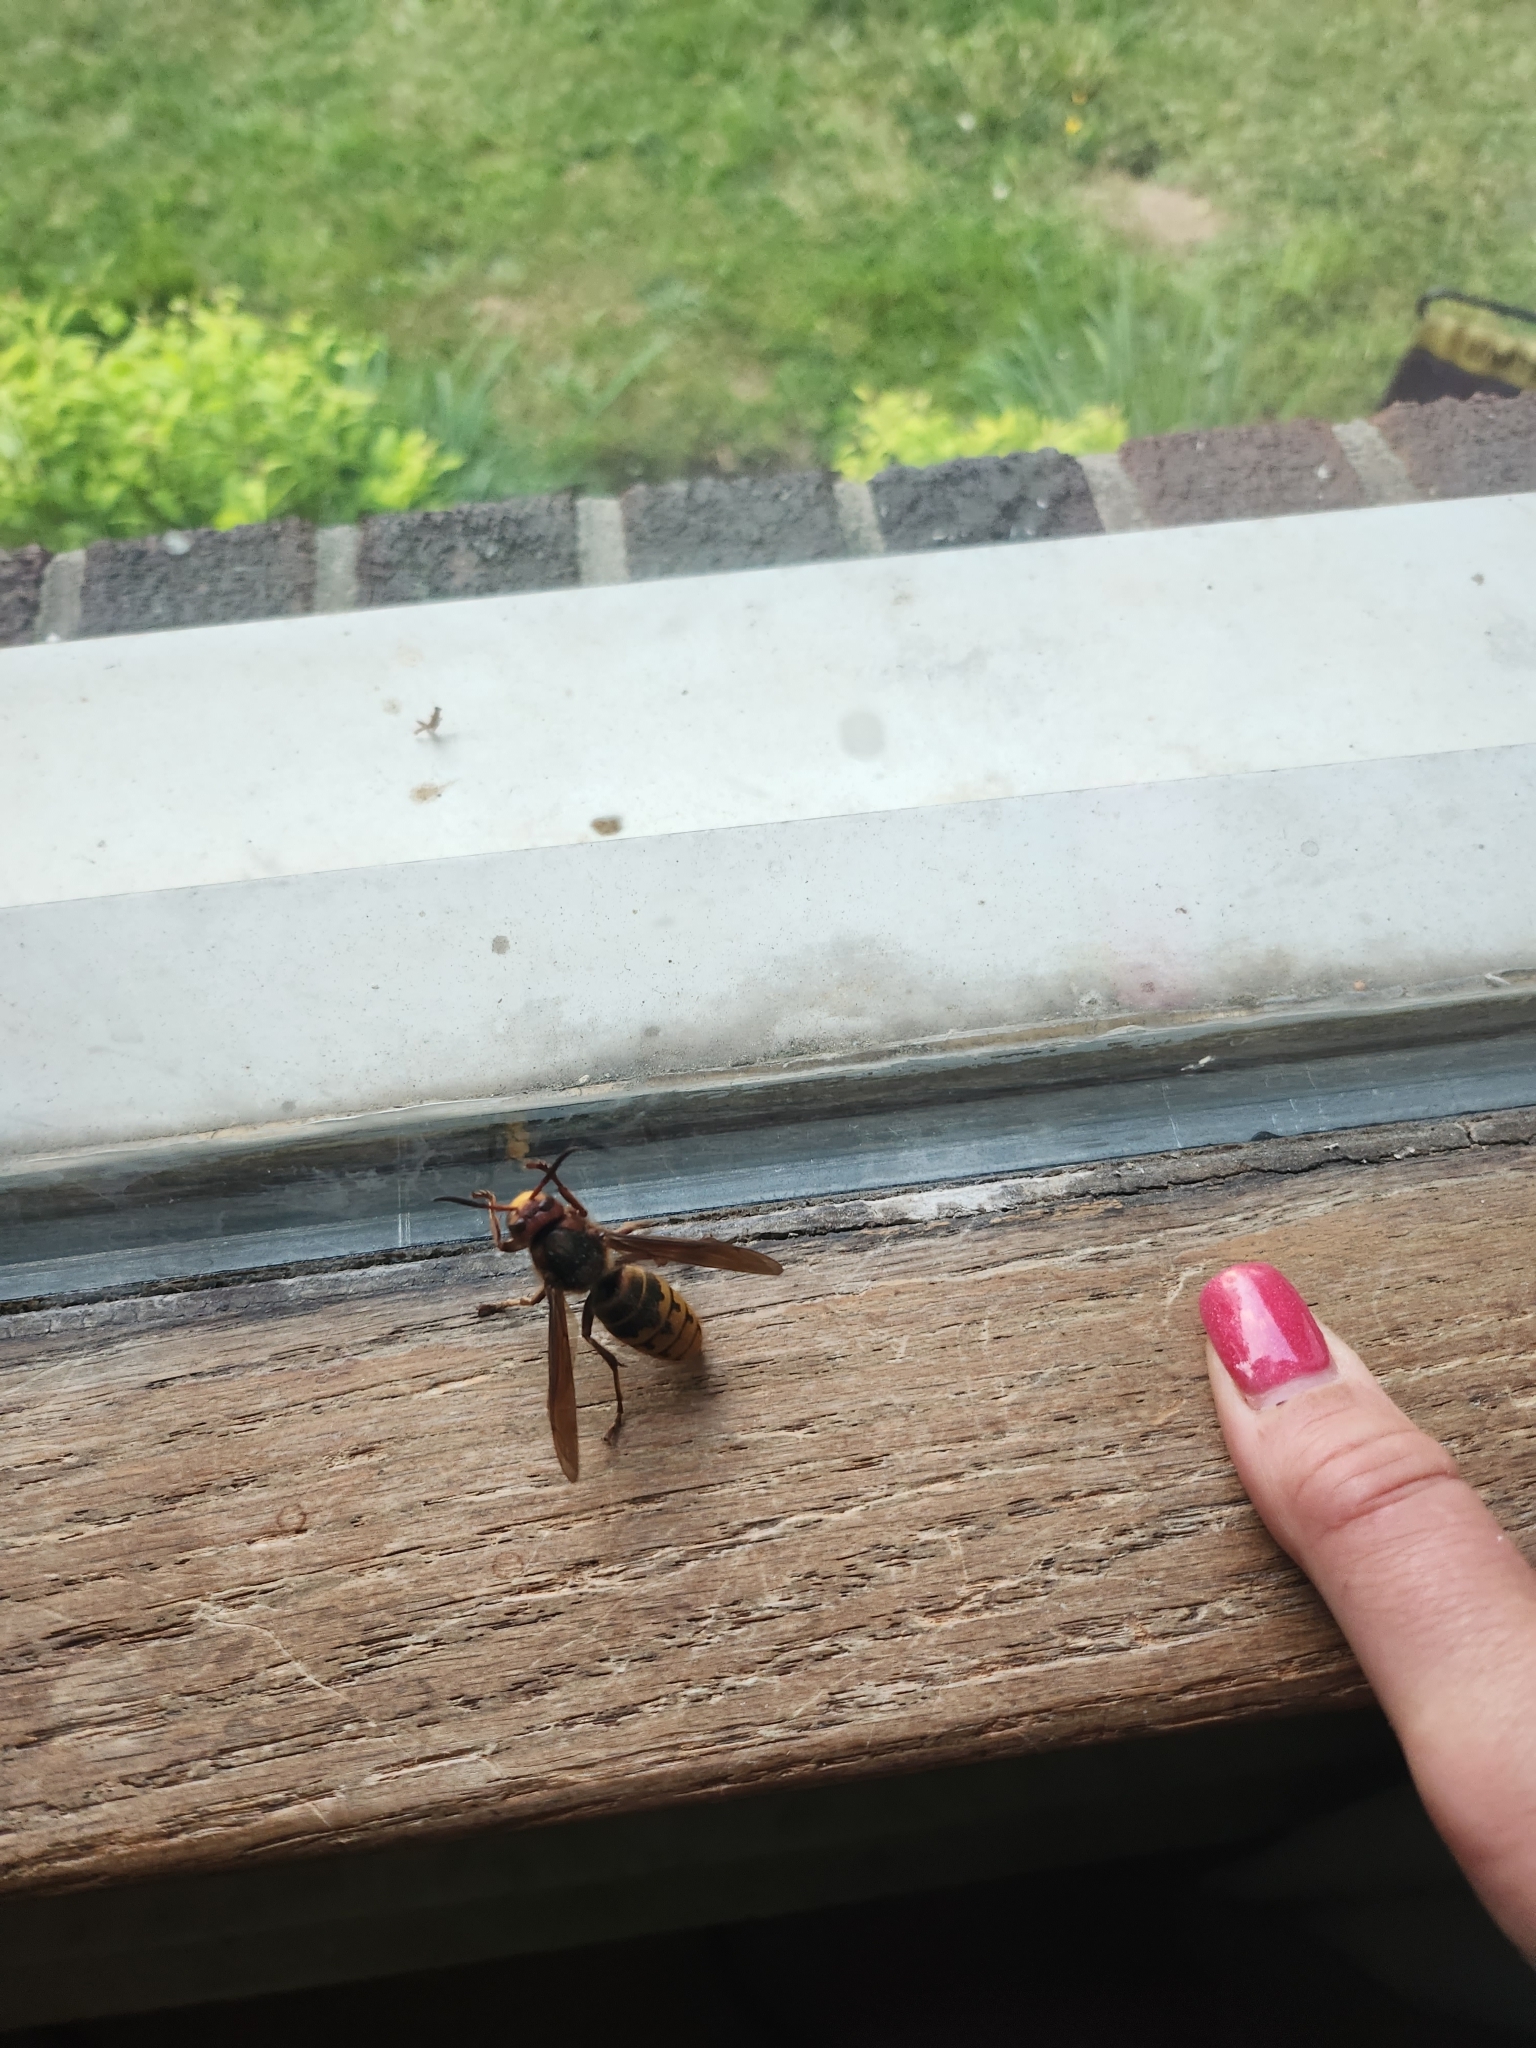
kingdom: Animalia
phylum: Arthropoda
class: Insecta
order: Hymenoptera
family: Vespidae
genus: Vespa
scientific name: Vespa crabro
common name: Hornet
